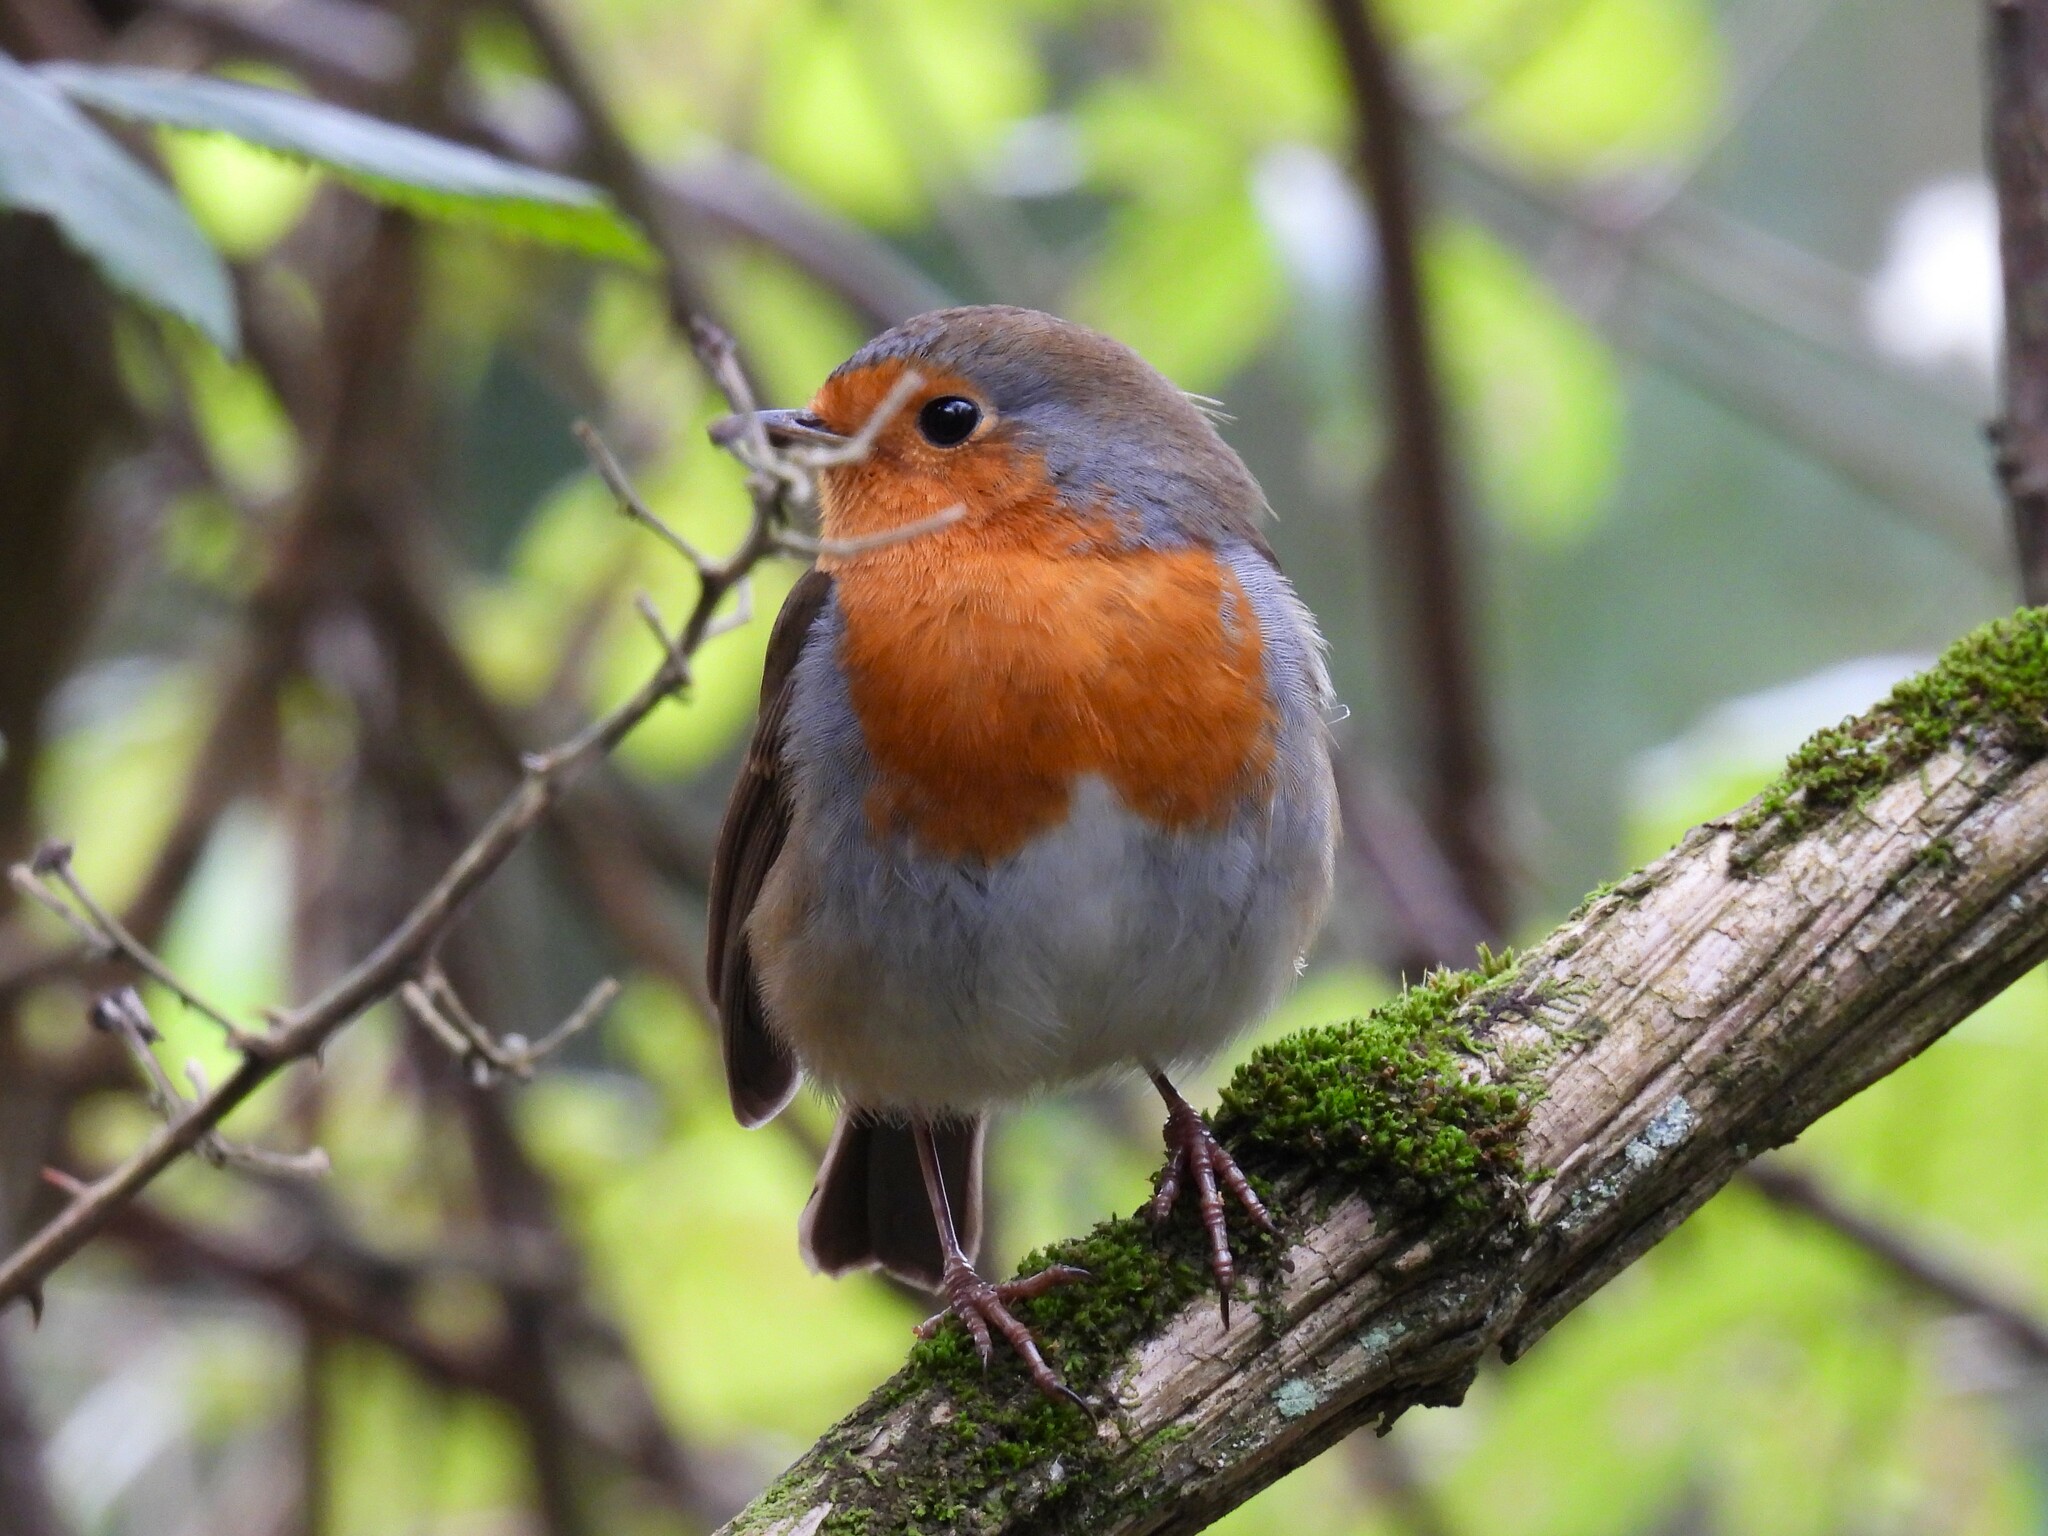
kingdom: Animalia
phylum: Chordata
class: Aves
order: Passeriformes
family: Muscicapidae
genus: Erithacus
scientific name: Erithacus rubecula
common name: European robin
